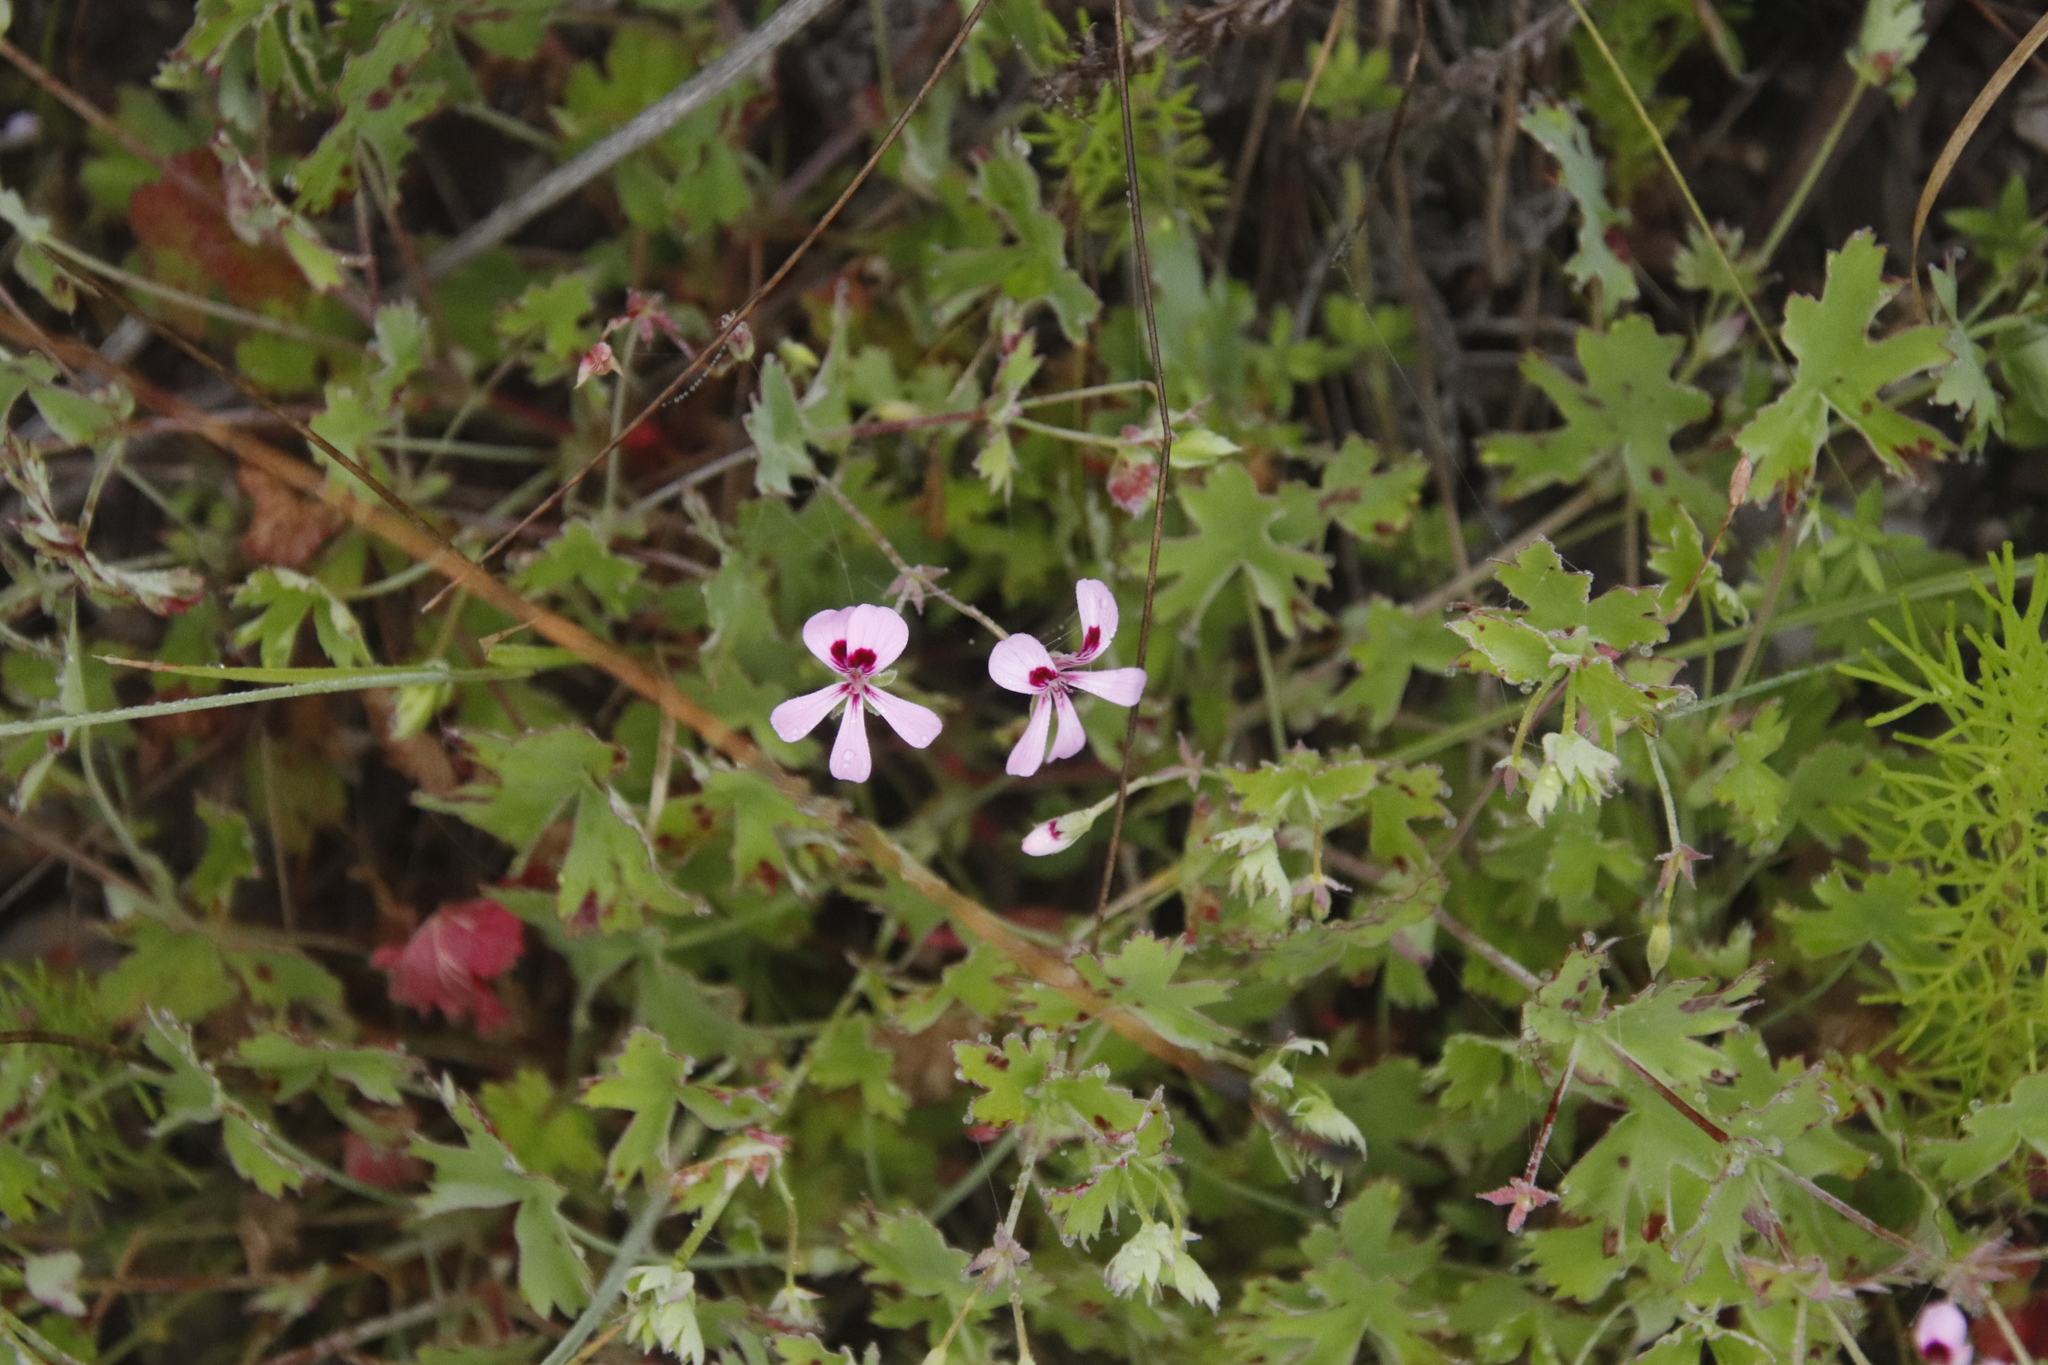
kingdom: Plantae
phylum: Tracheophyta
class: Magnoliopsida
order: Geraniales
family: Geraniaceae
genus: Pelargonium
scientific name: Pelargonium patulum
